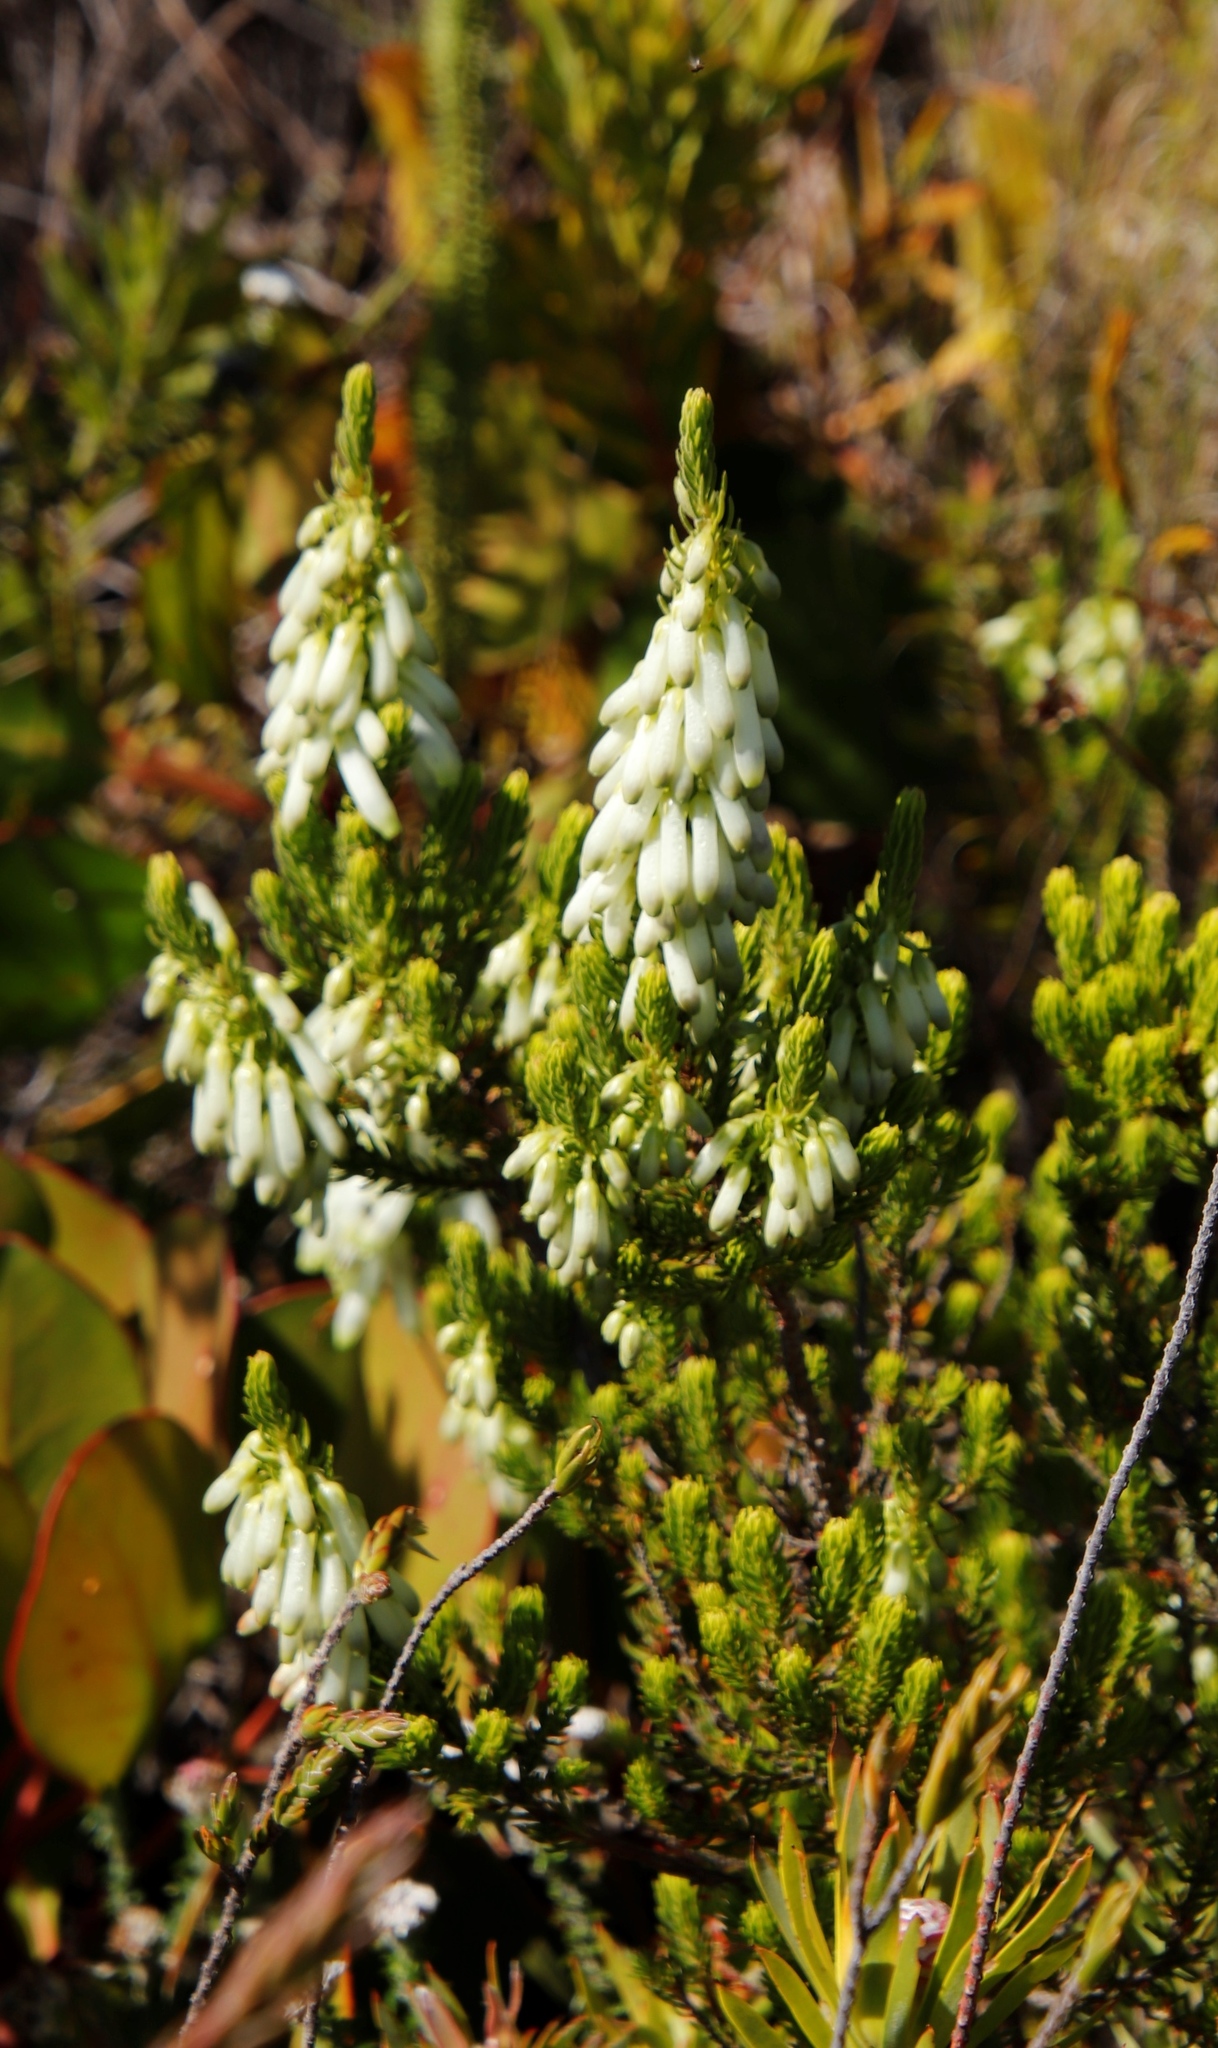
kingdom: Plantae
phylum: Tracheophyta
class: Magnoliopsida
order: Ericales
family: Ericaceae
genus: Erica
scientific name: Erica mammosa
